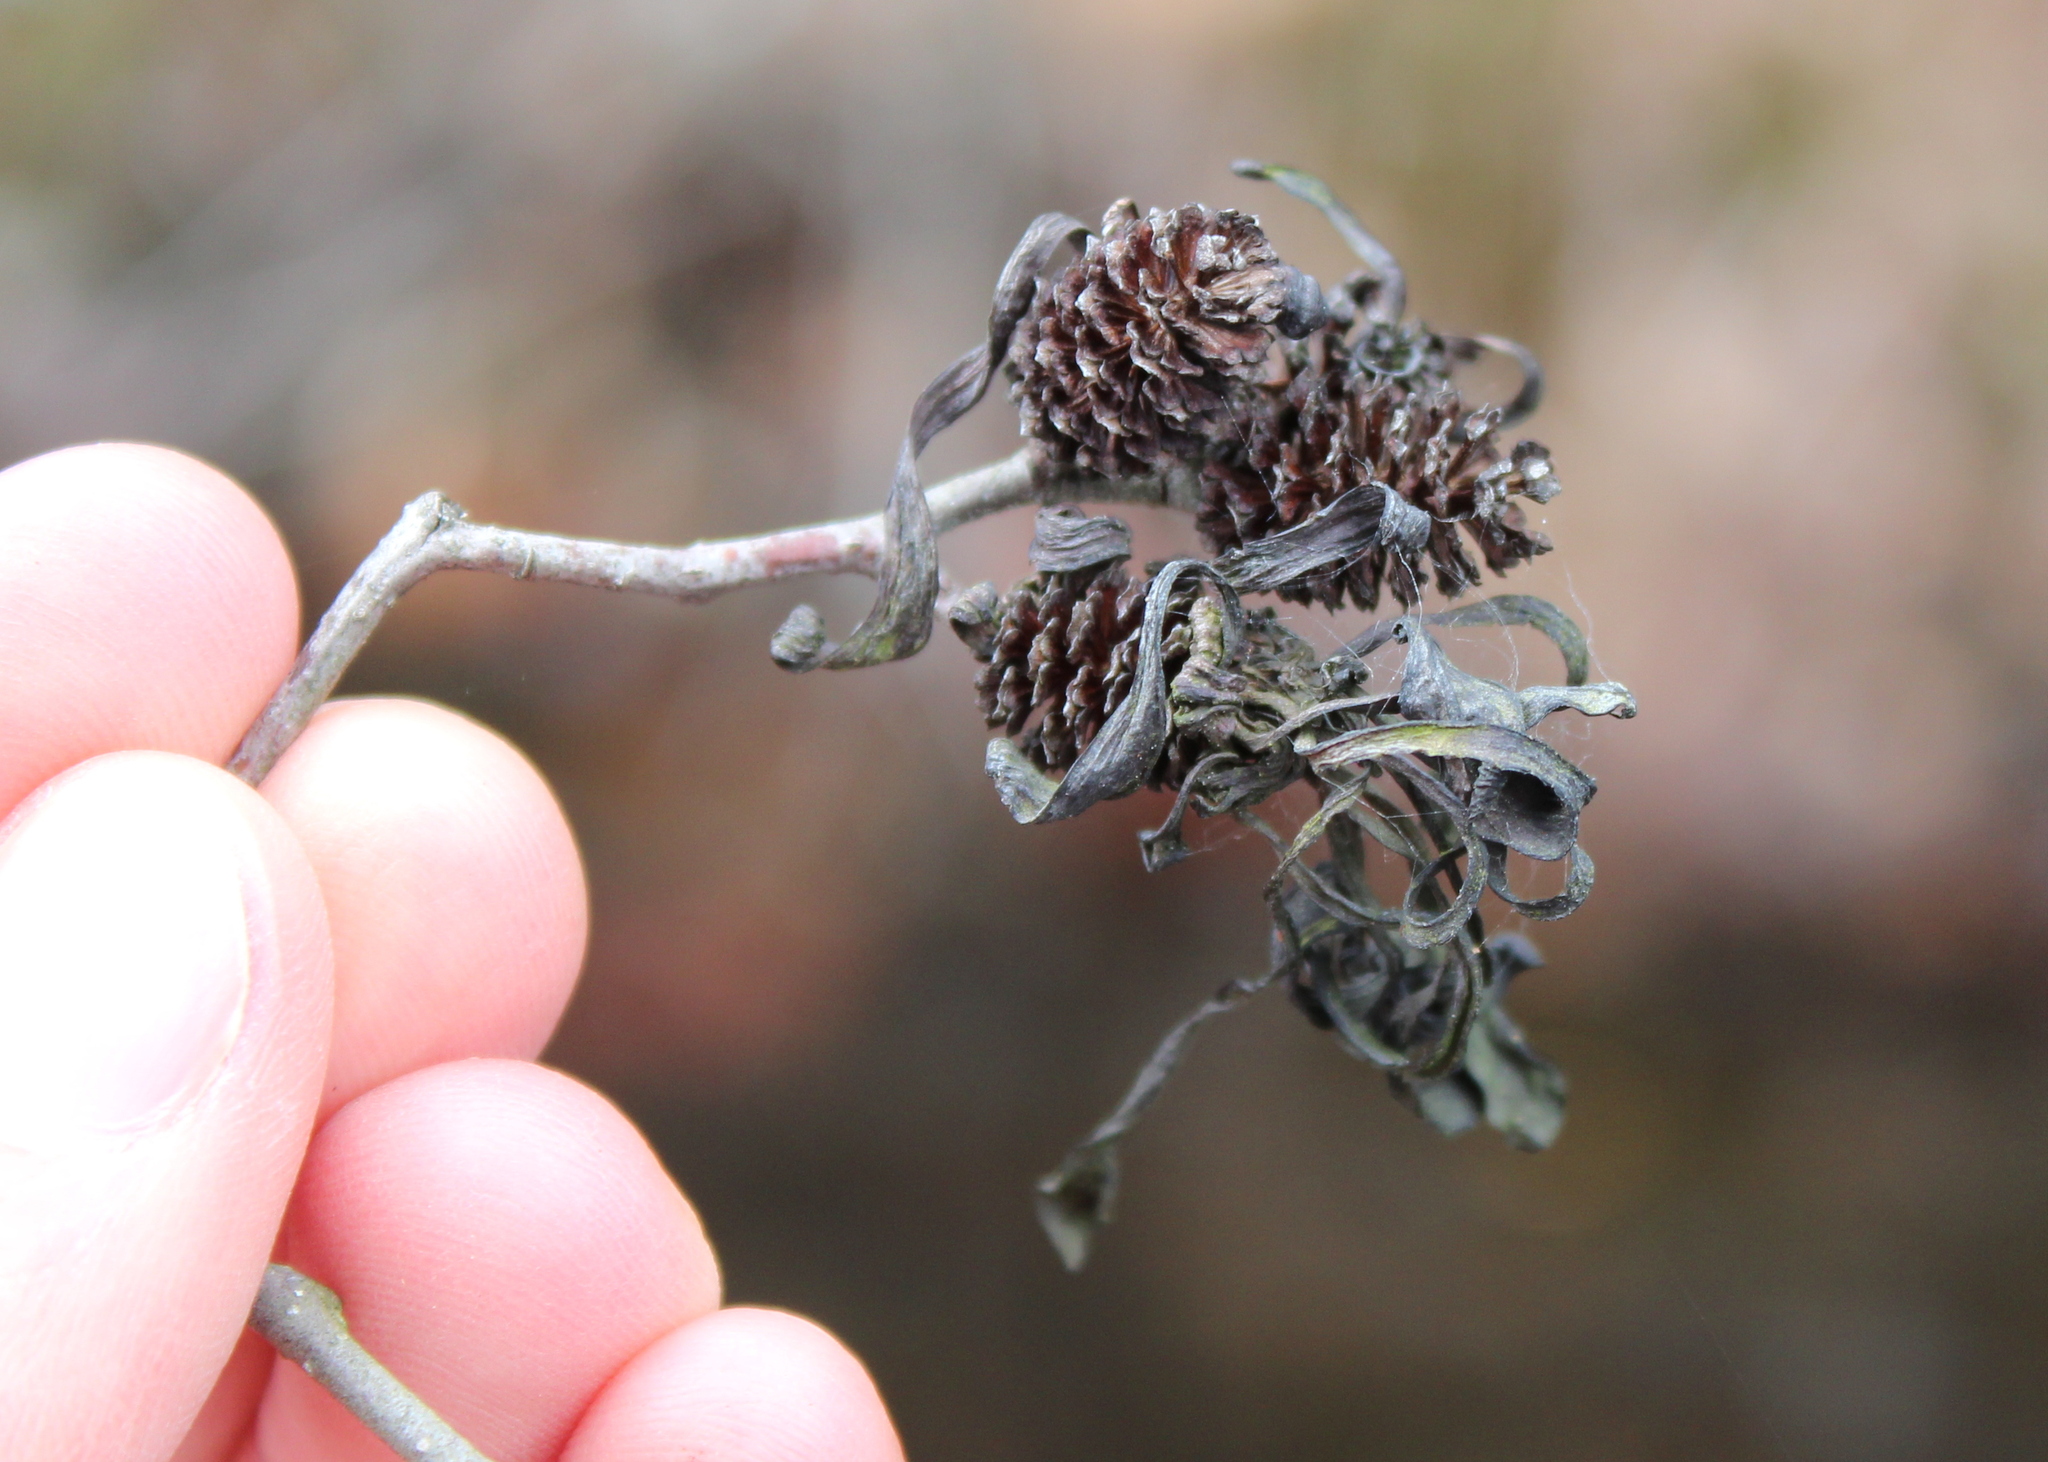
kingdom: Fungi
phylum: Ascomycota
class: Taphrinomycetes
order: Taphrinales
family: Taphrinaceae
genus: Taphrina
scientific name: Taphrina robinsoniana
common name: Eastern american alder tongue gall fungus
